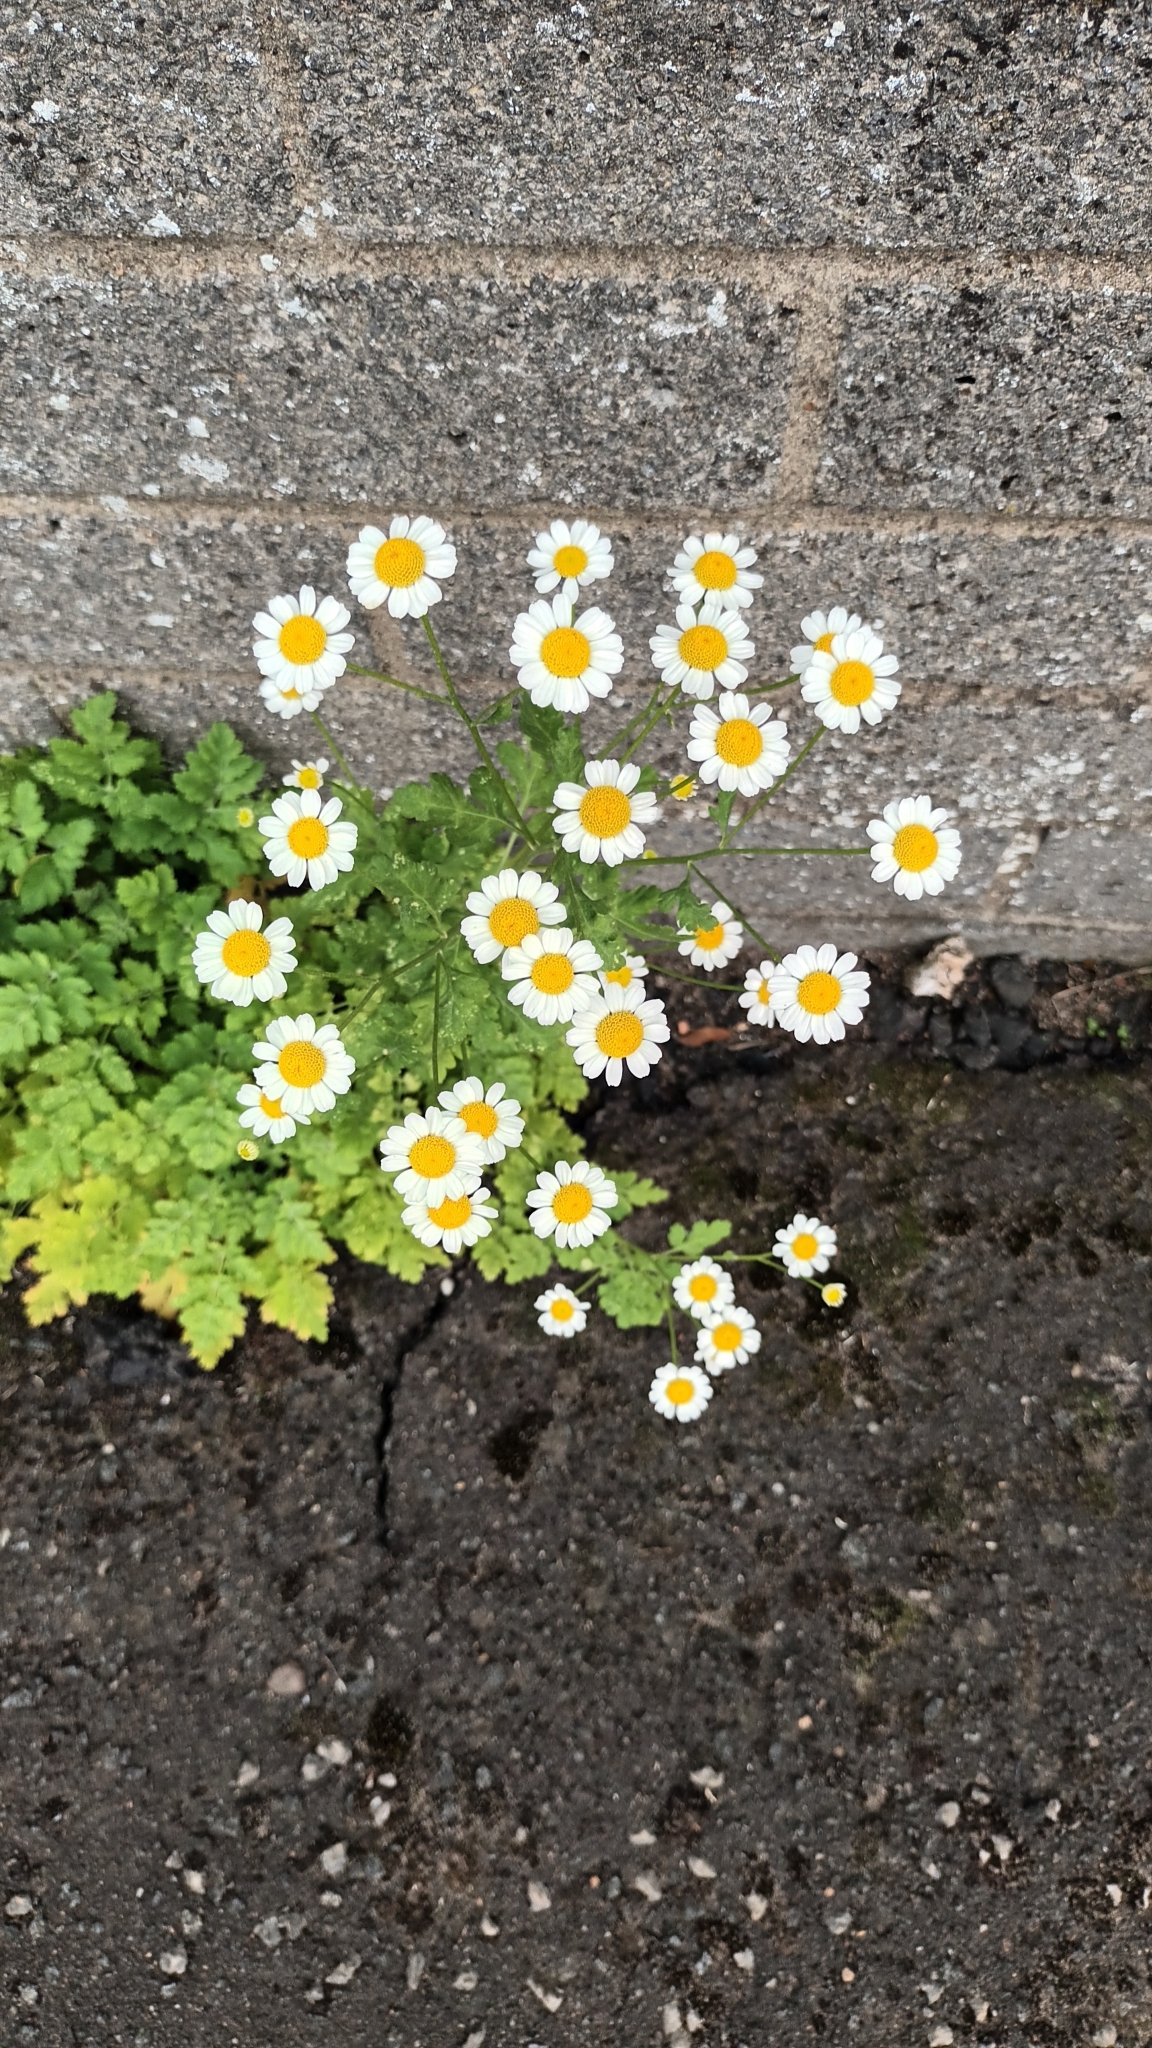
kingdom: Plantae
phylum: Tracheophyta
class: Magnoliopsida
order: Asterales
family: Asteraceae
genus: Tanacetum
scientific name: Tanacetum parthenium
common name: Feverfew
